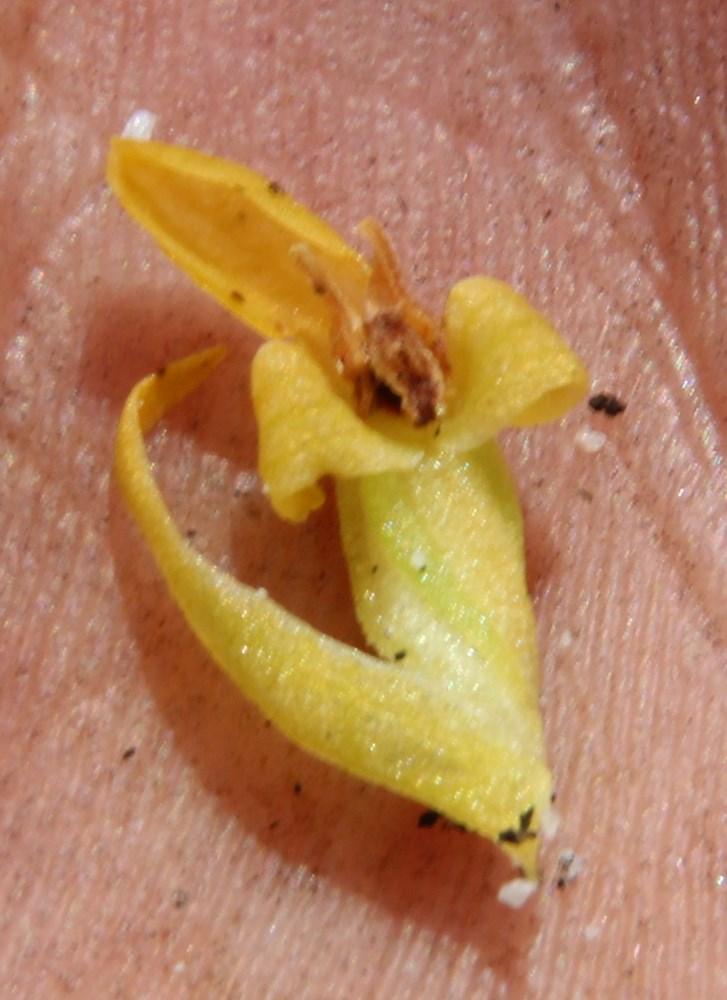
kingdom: Plantae
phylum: Tracheophyta
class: Liliopsida
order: Asparagales
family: Orchidaceae
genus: Disa
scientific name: Disa cylindrica
